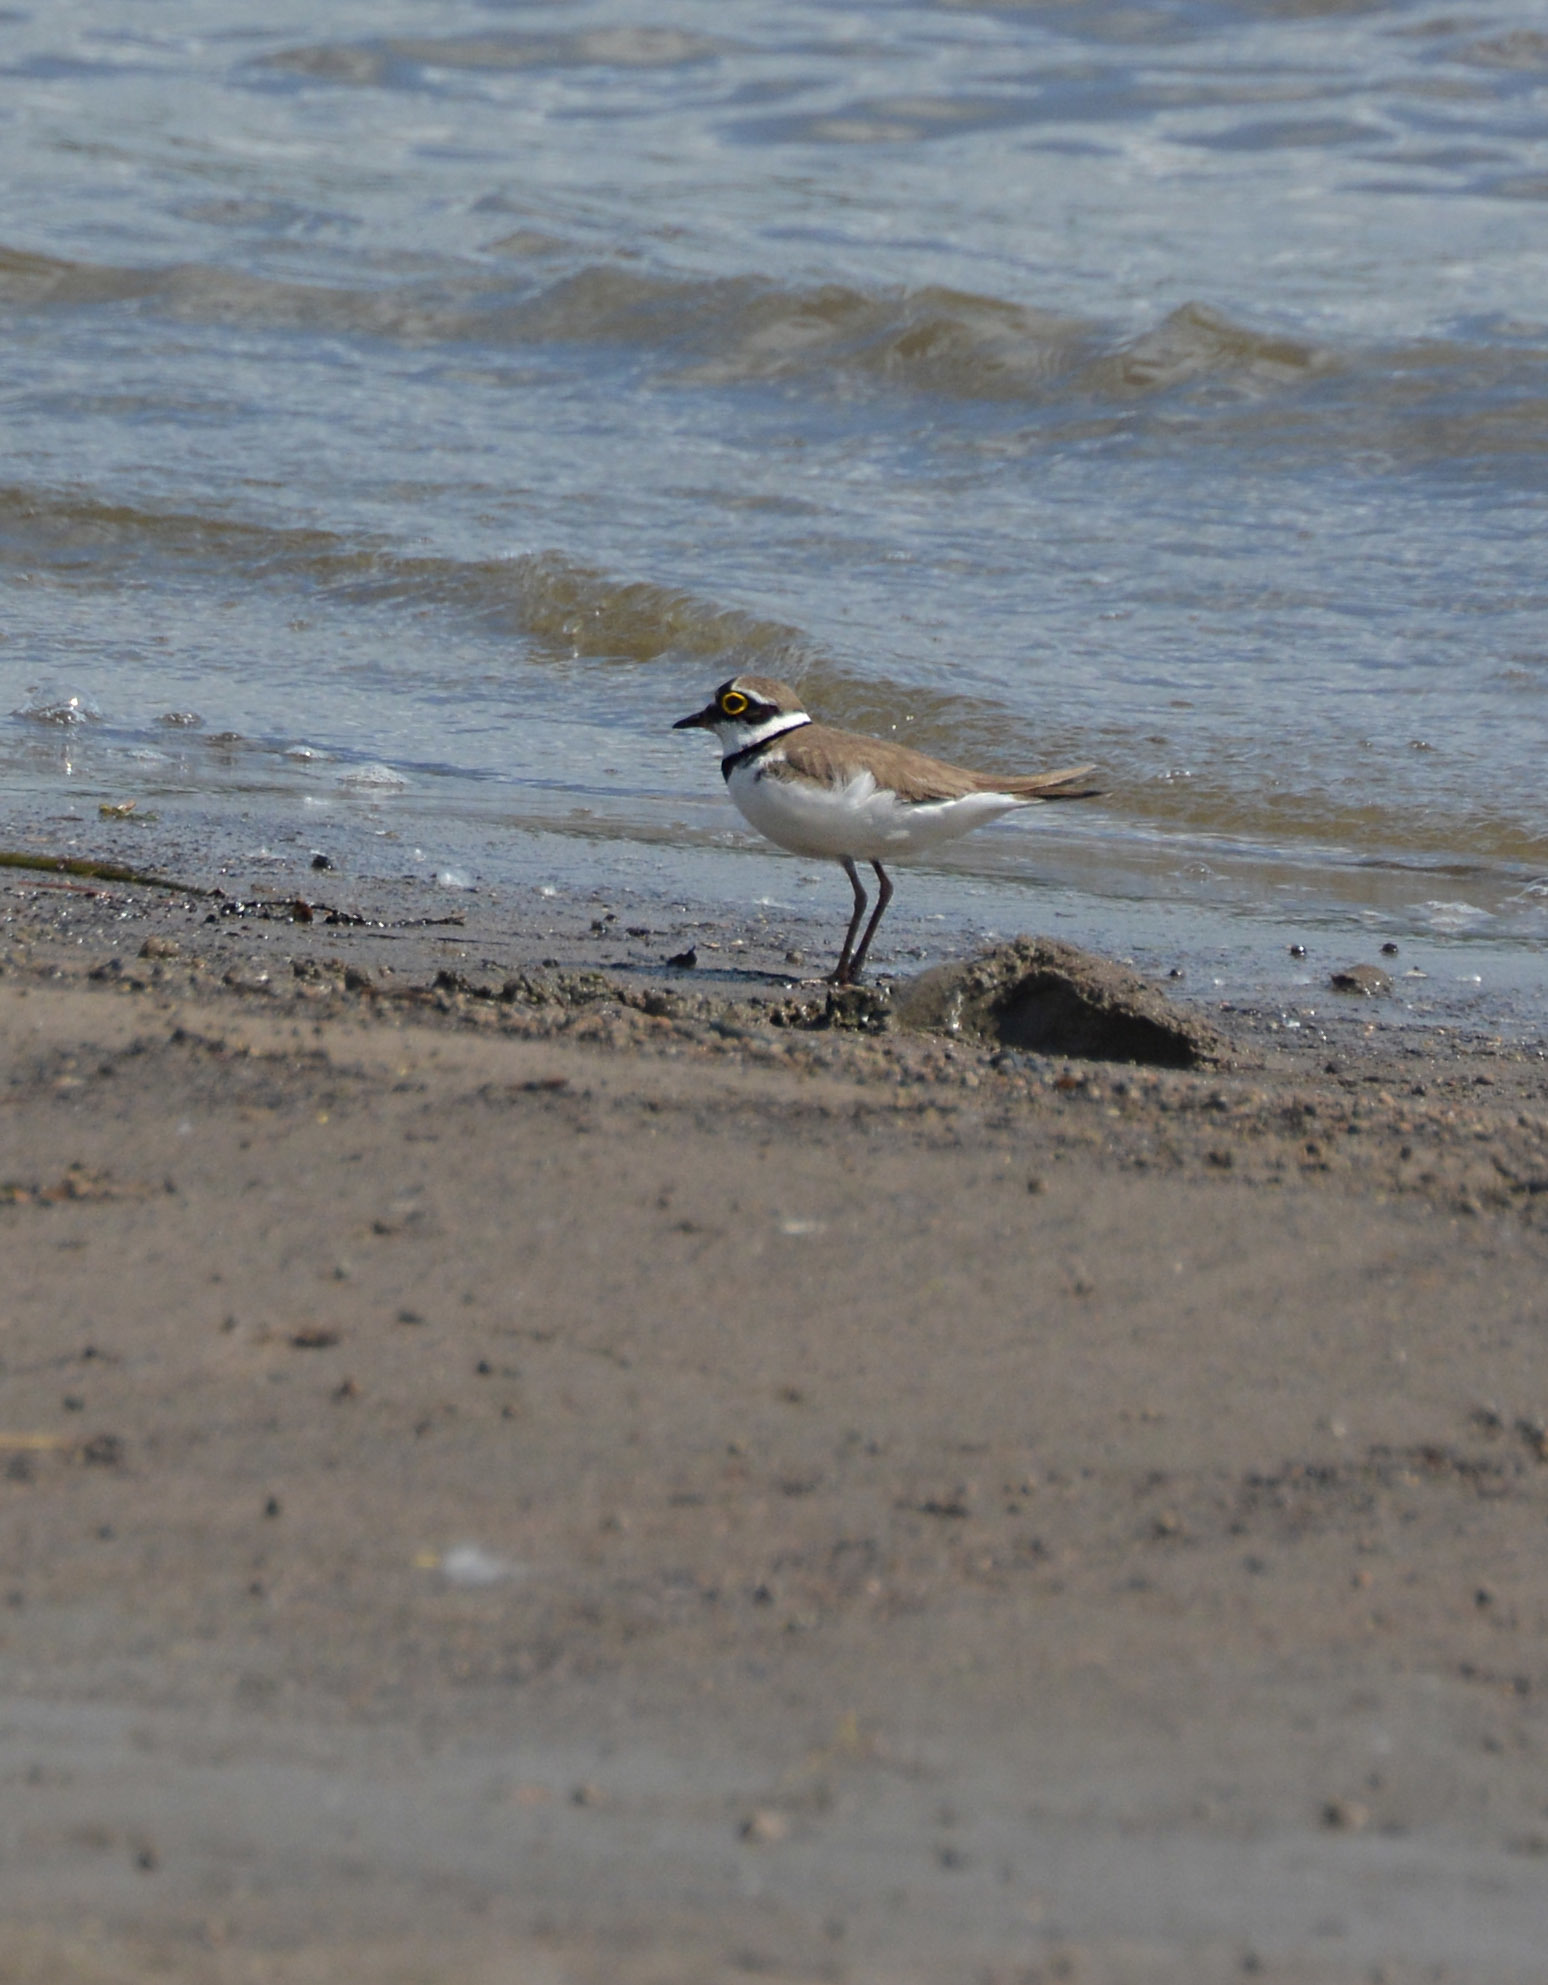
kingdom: Animalia
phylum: Chordata
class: Aves
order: Charadriiformes
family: Charadriidae
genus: Charadrius
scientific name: Charadrius dubius
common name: Little ringed plover
